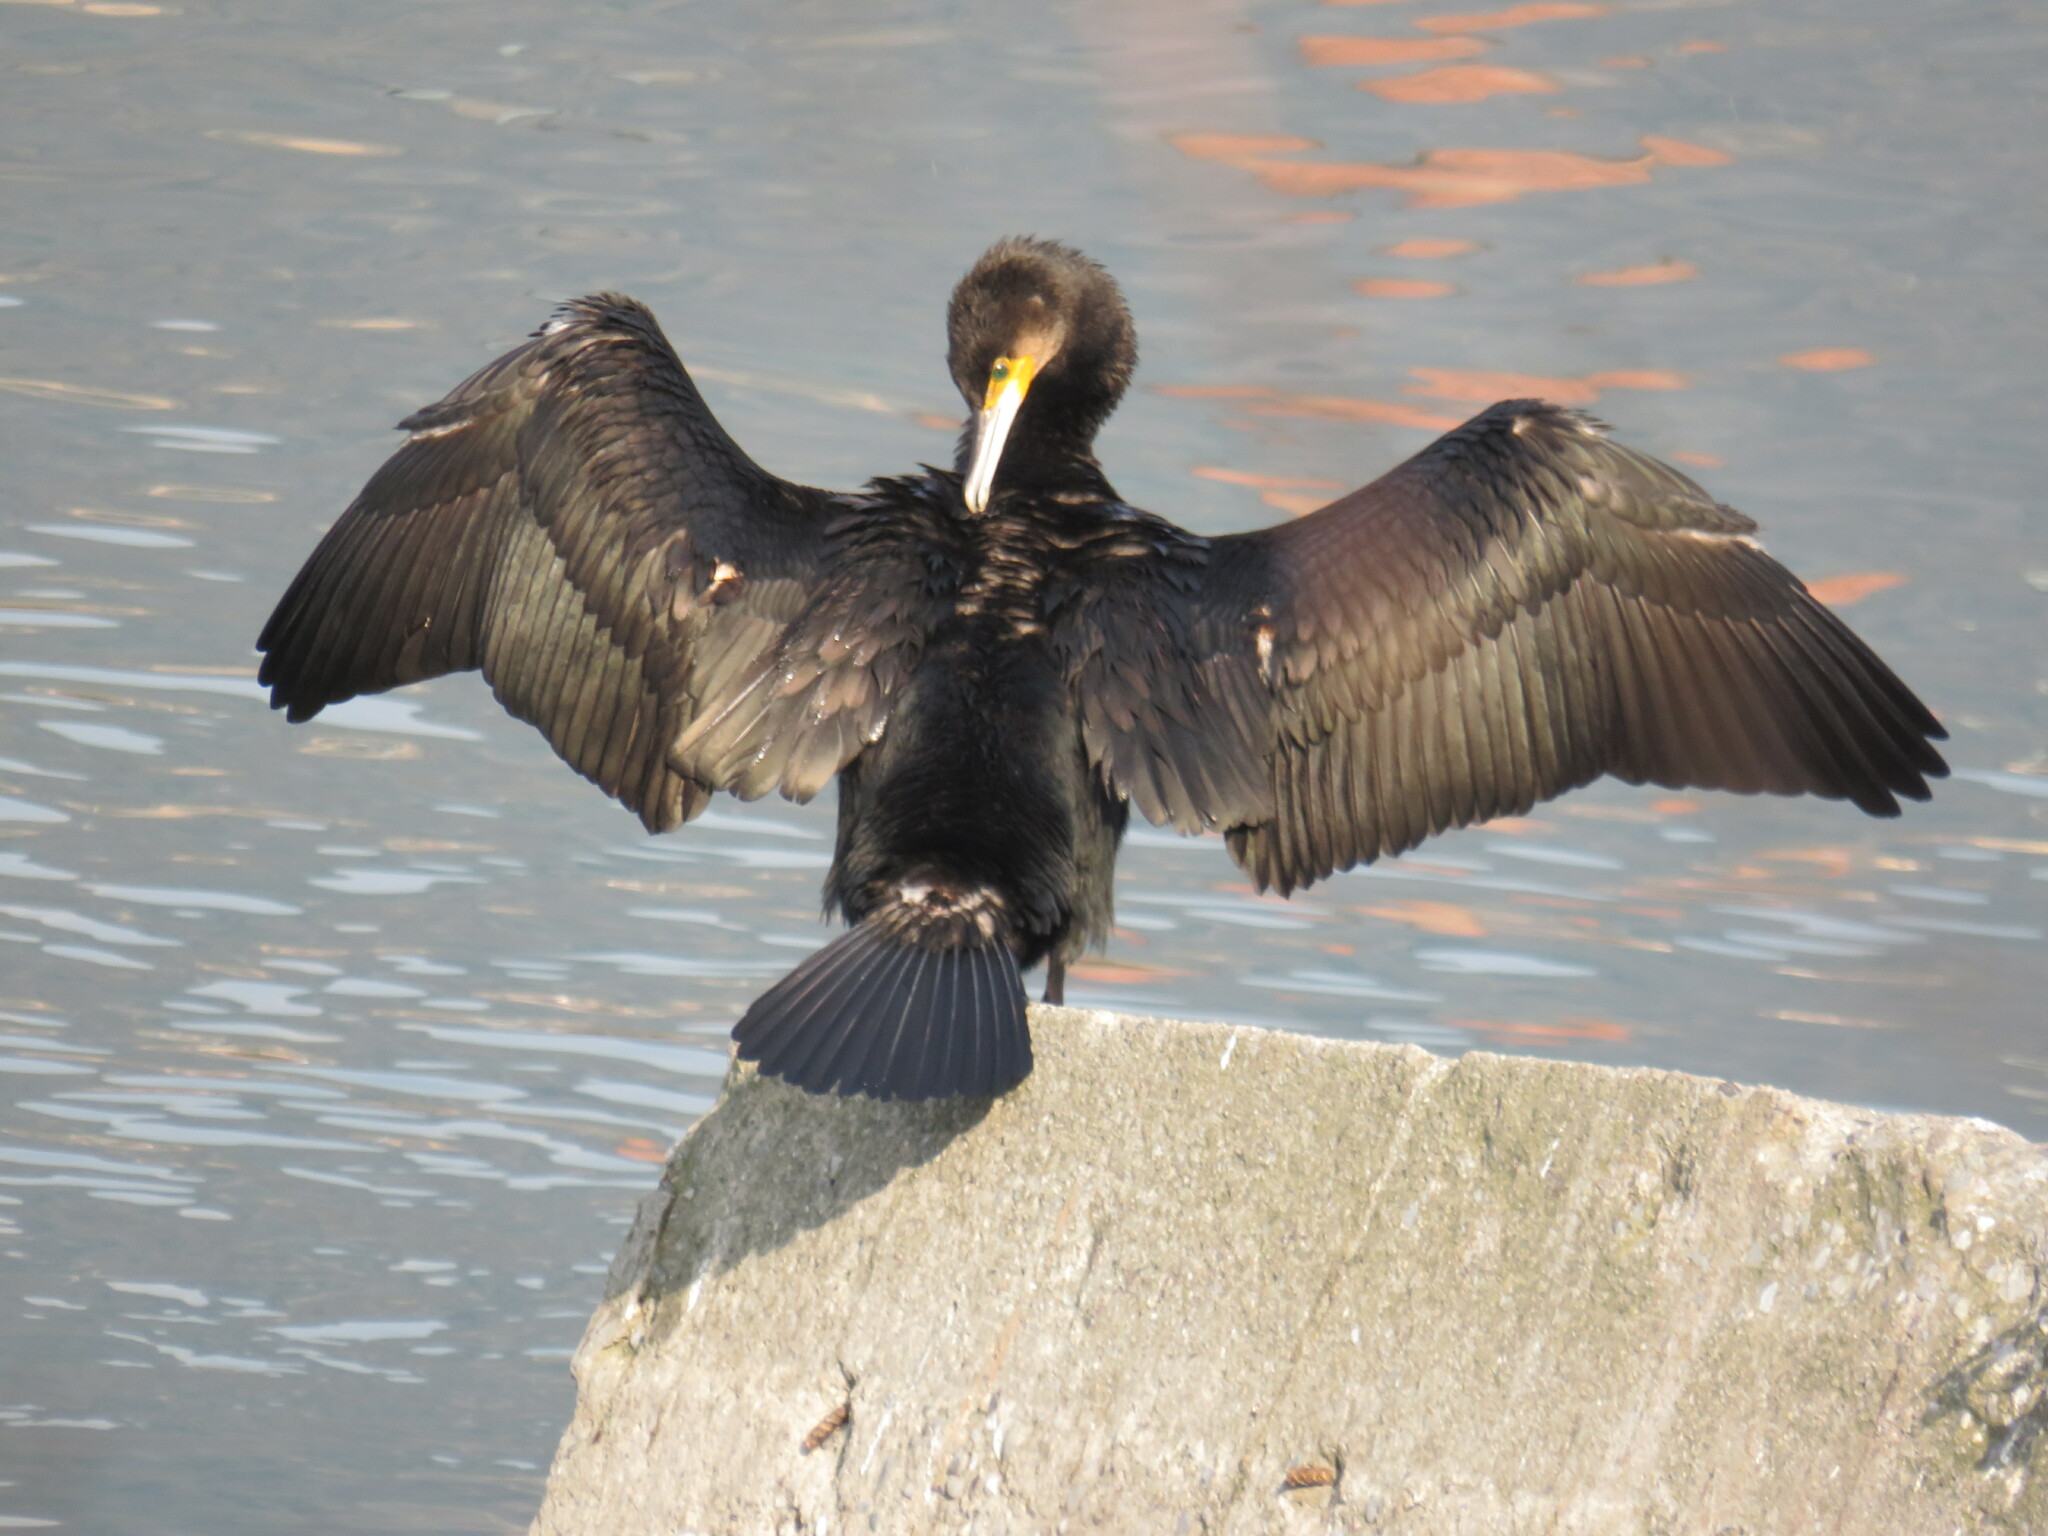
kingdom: Animalia
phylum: Chordata
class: Aves
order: Suliformes
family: Phalacrocoracidae
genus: Phalacrocorax
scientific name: Phalacrocorax carbo
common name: Great cormorant
